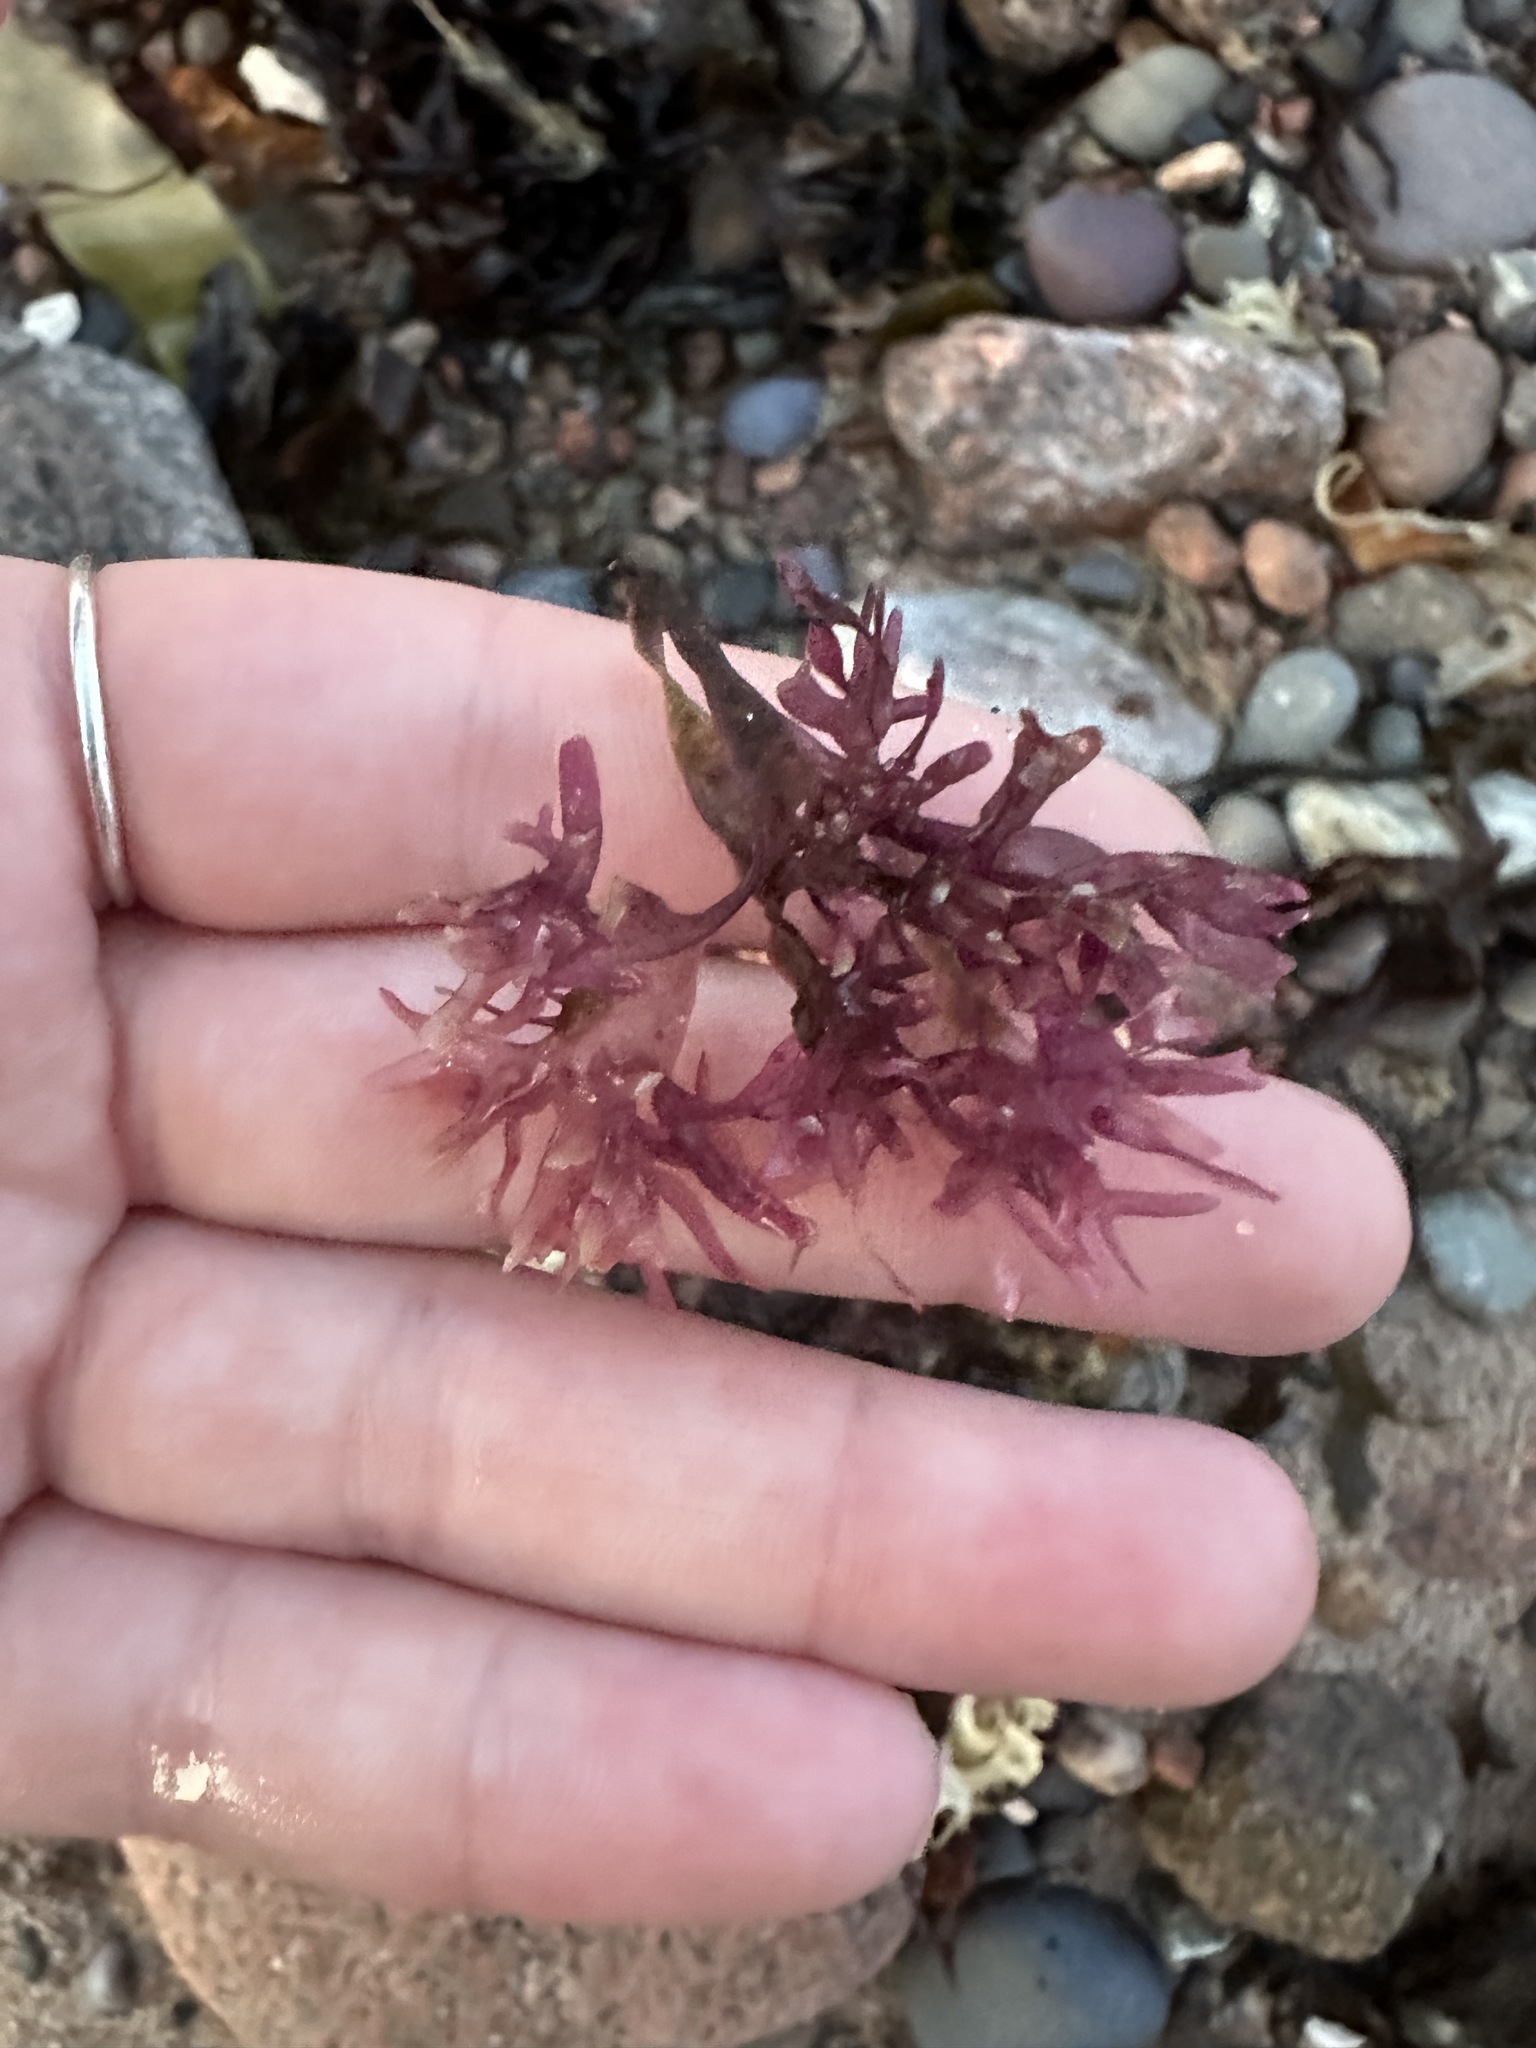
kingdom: Plantae
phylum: Rhodophyta
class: Florideophyceae
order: Gigartinales
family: Gigartinaceae
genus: Chondrus
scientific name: Chondrus crispus
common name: Carrageen
